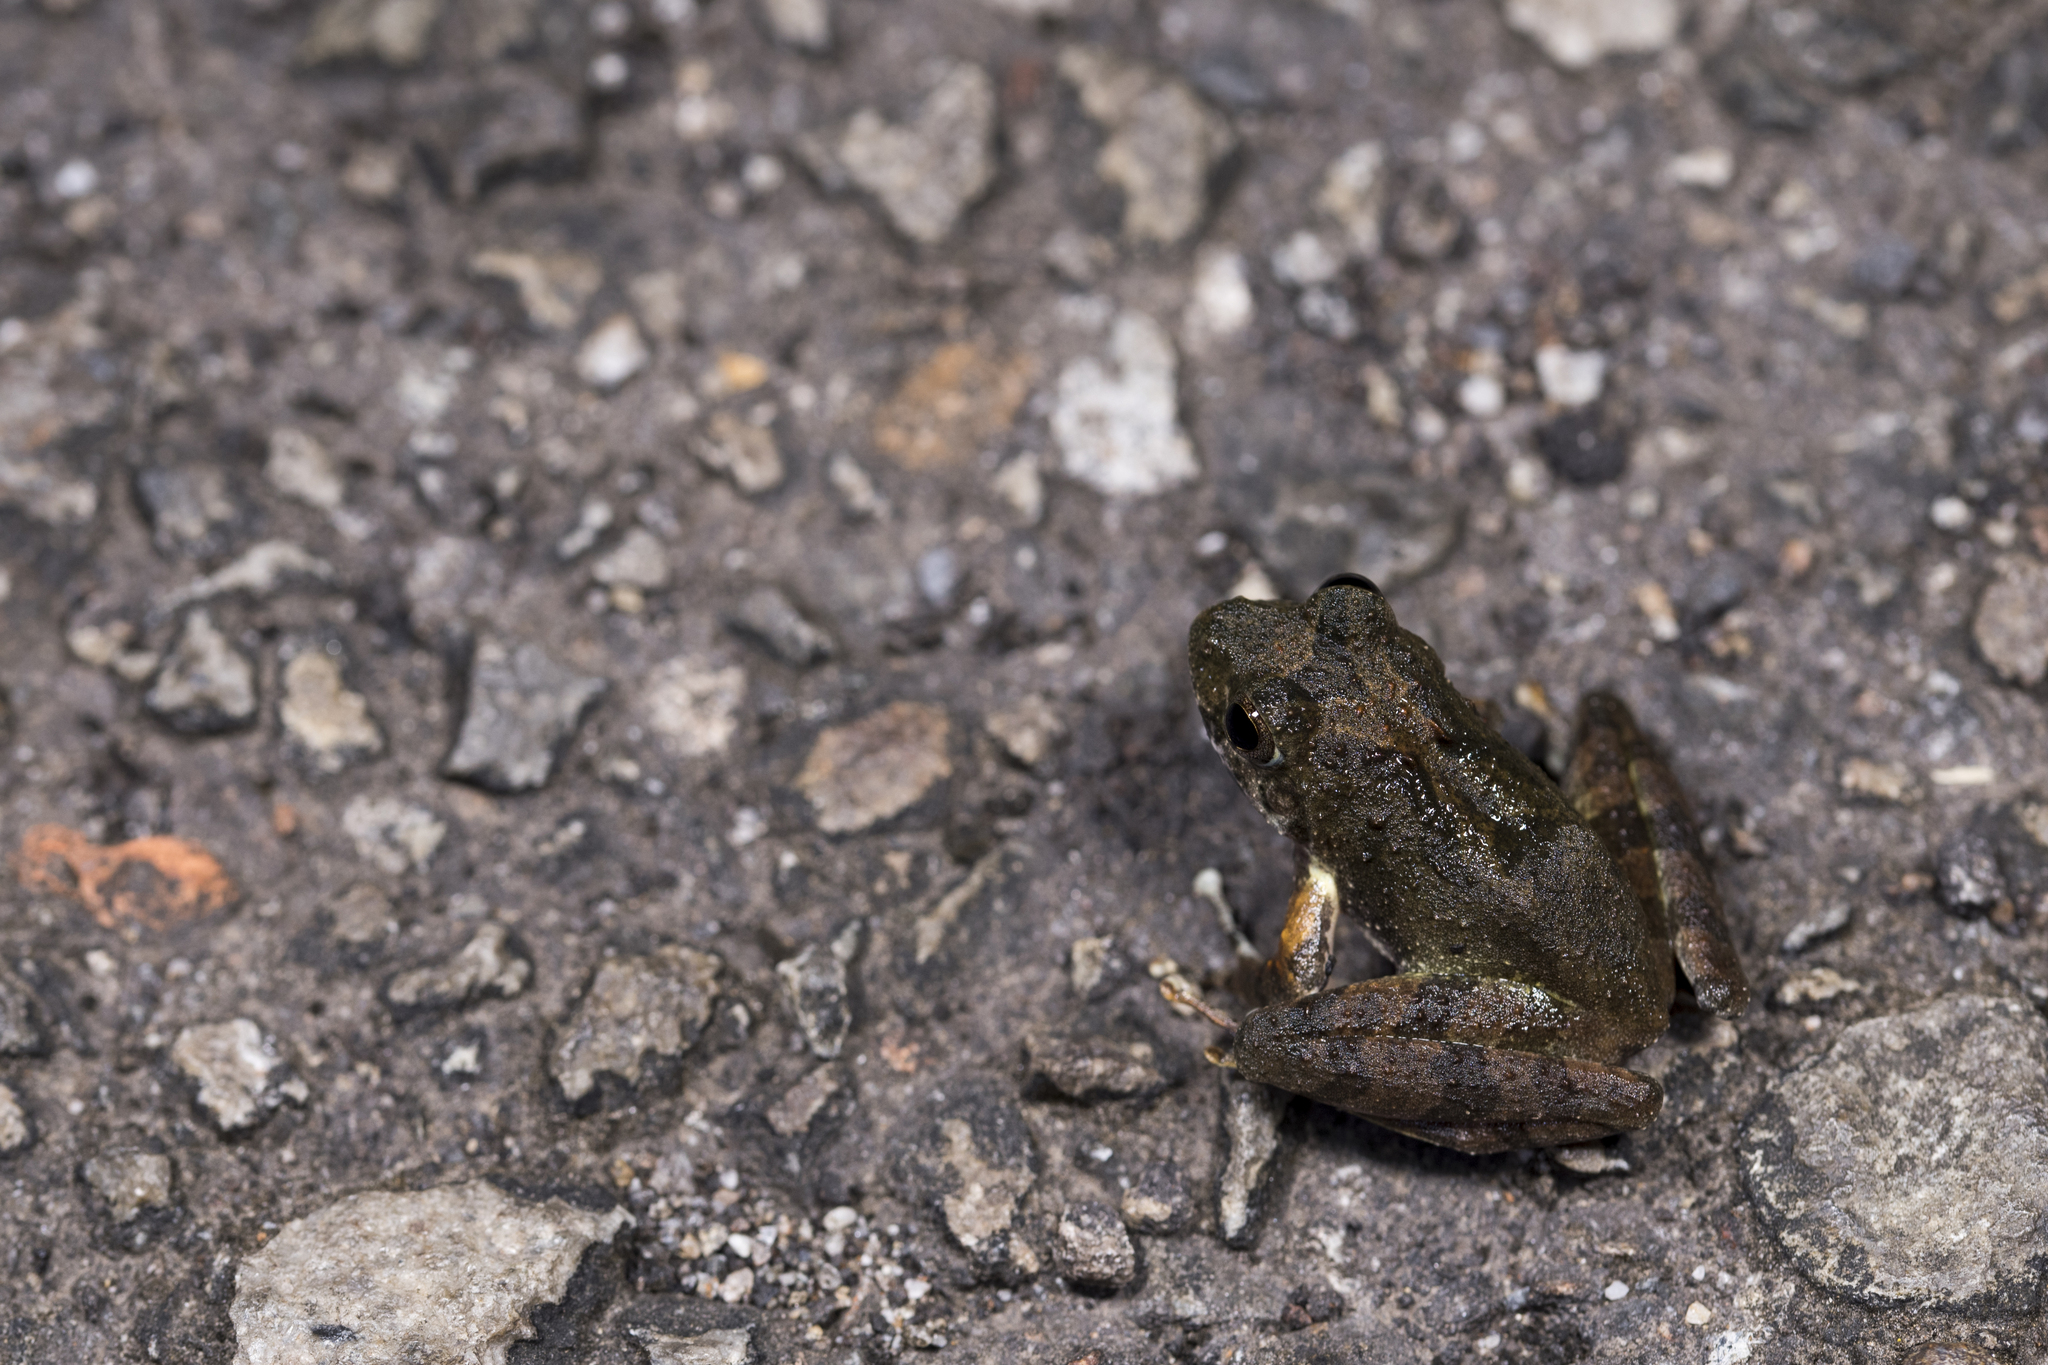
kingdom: Animalia
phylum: Chordata
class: Amphibia
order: Anura
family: Rhacophoridae
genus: Buergeria
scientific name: Buergeria choui
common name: Yaeyama kajika frog
